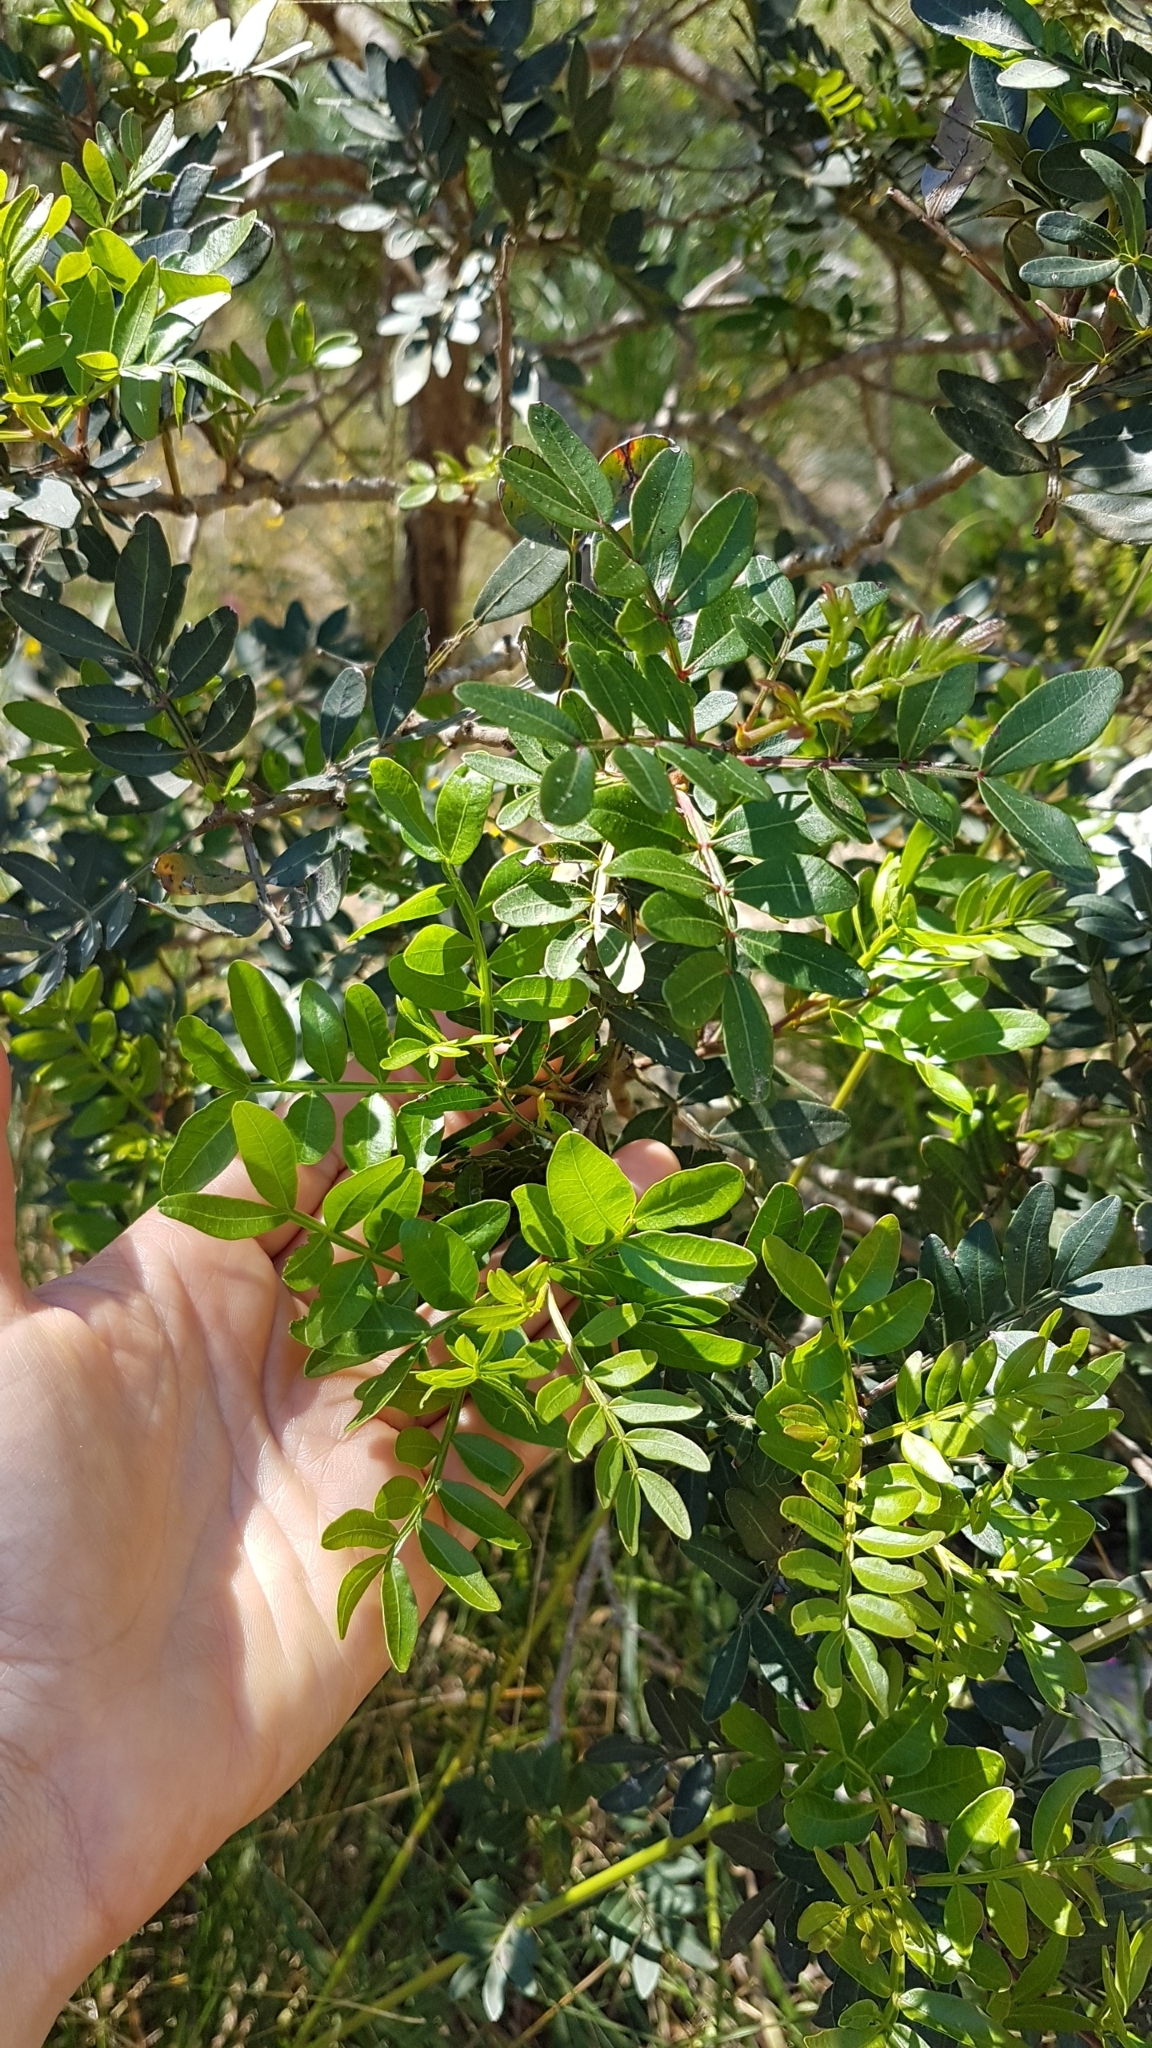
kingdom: Plantae
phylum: Tracheophyta
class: Magnoliopsida
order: Sapindales
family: Anacardiaceae
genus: Pistacia
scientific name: Pistacia lentiscus
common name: Lentisk
